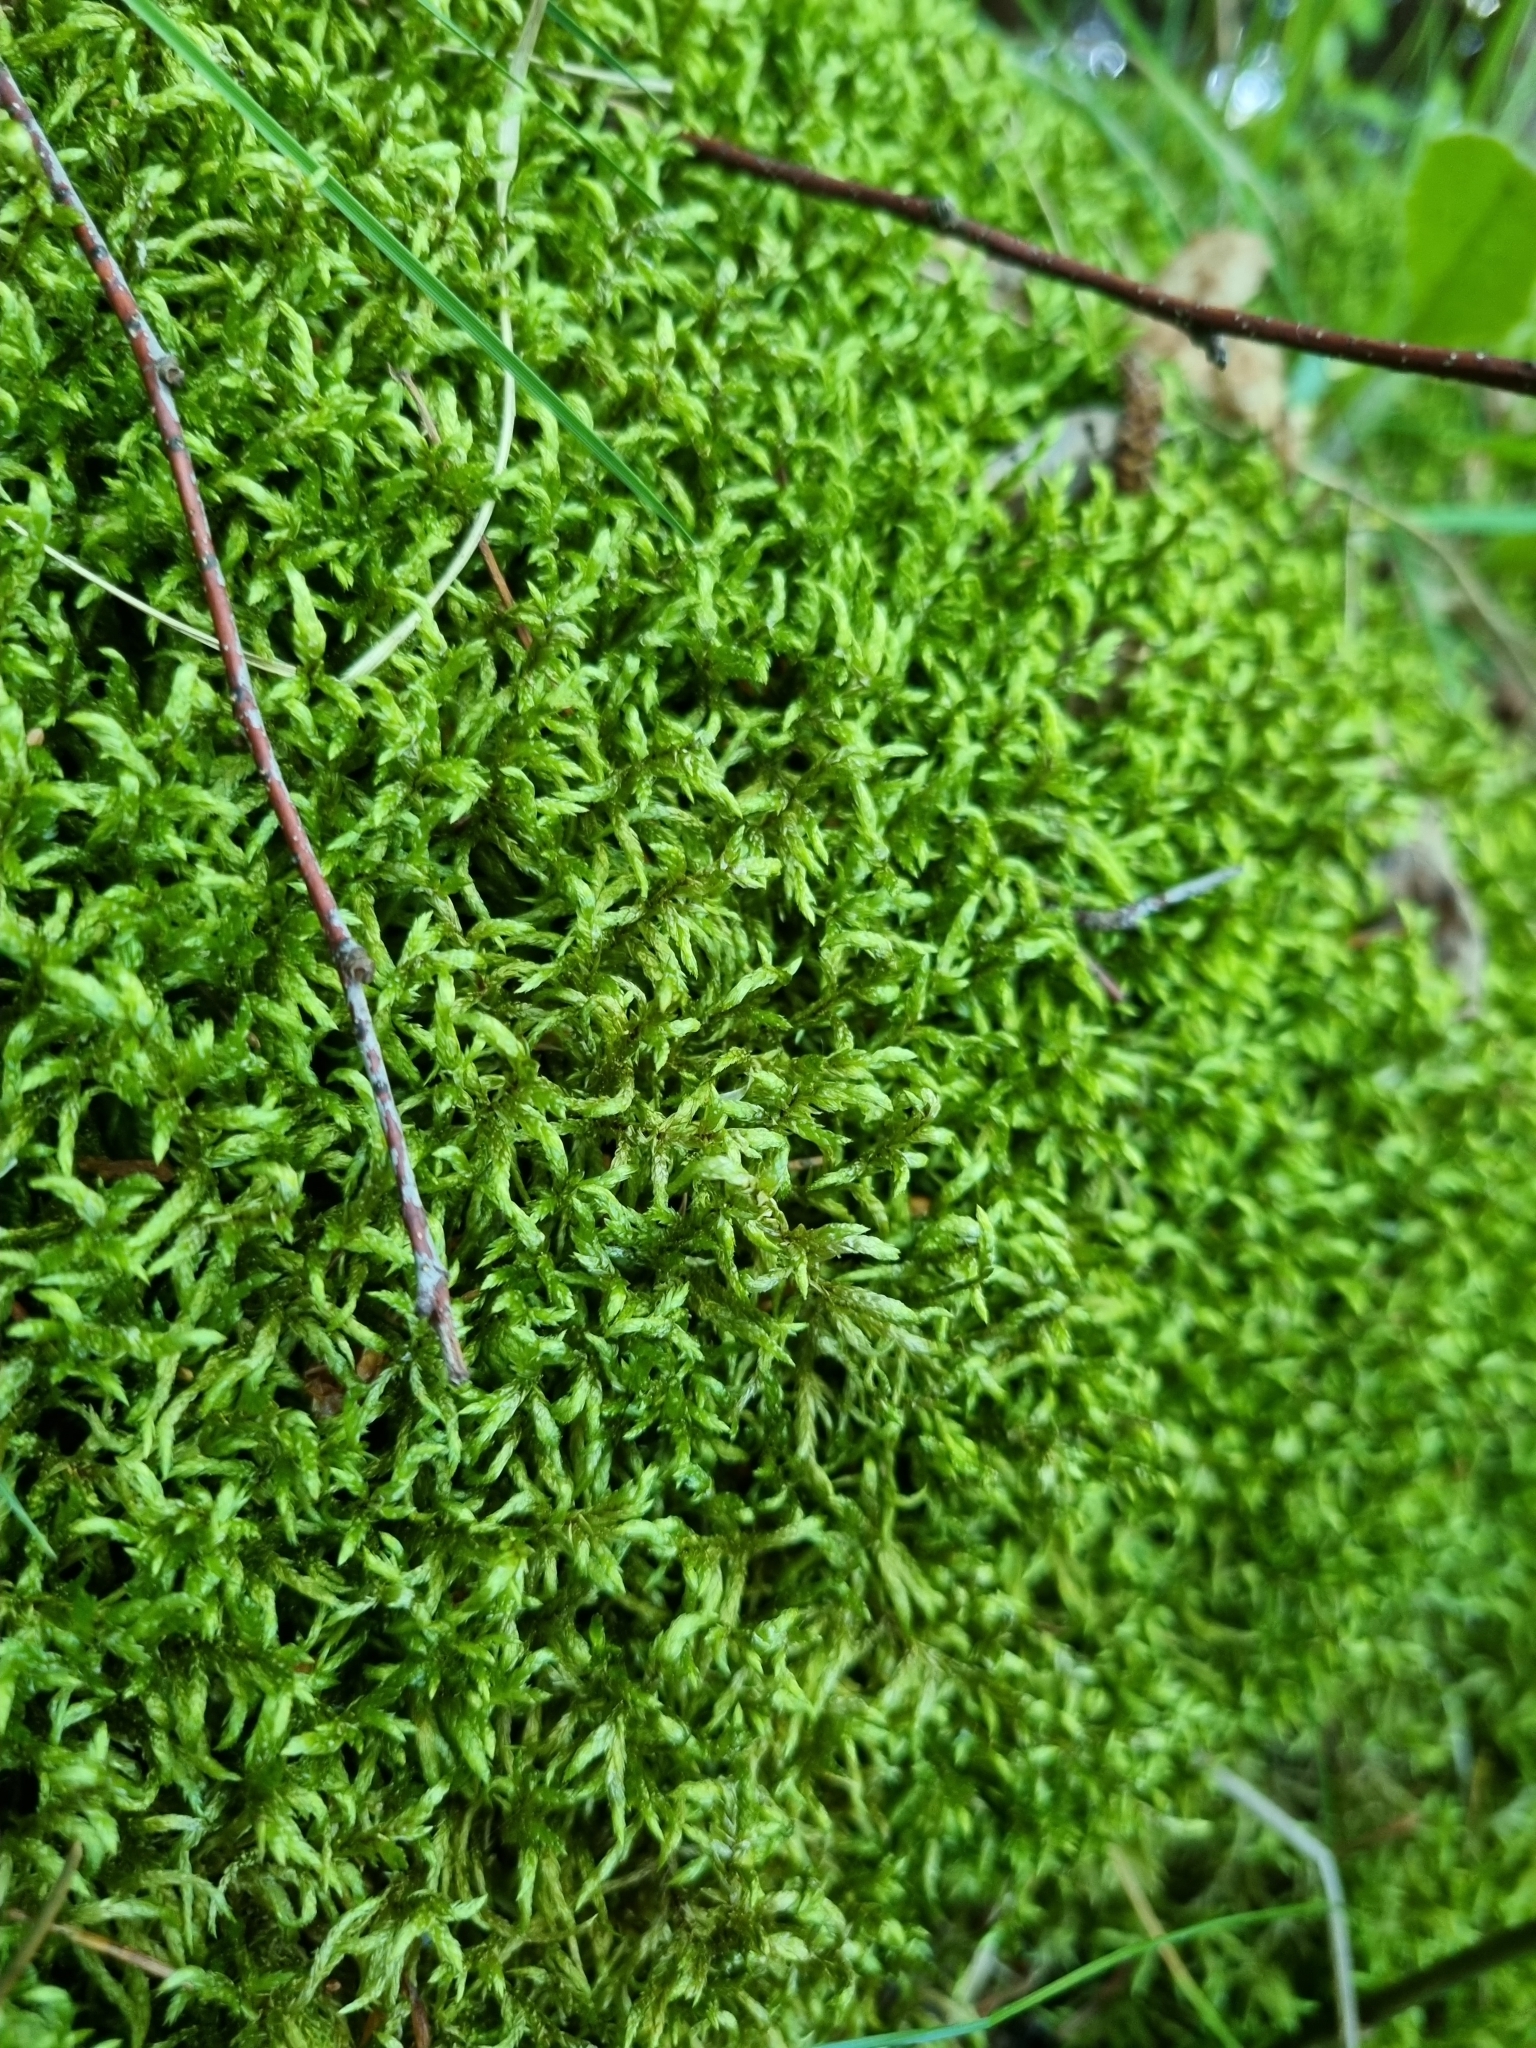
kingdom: Plantae
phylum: Bryophyta
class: Bryopsida
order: Hypnales
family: Hylocomiaceae
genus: Pleurozium
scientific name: Pleurozium schreberi
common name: Red-stemmed feather moss
